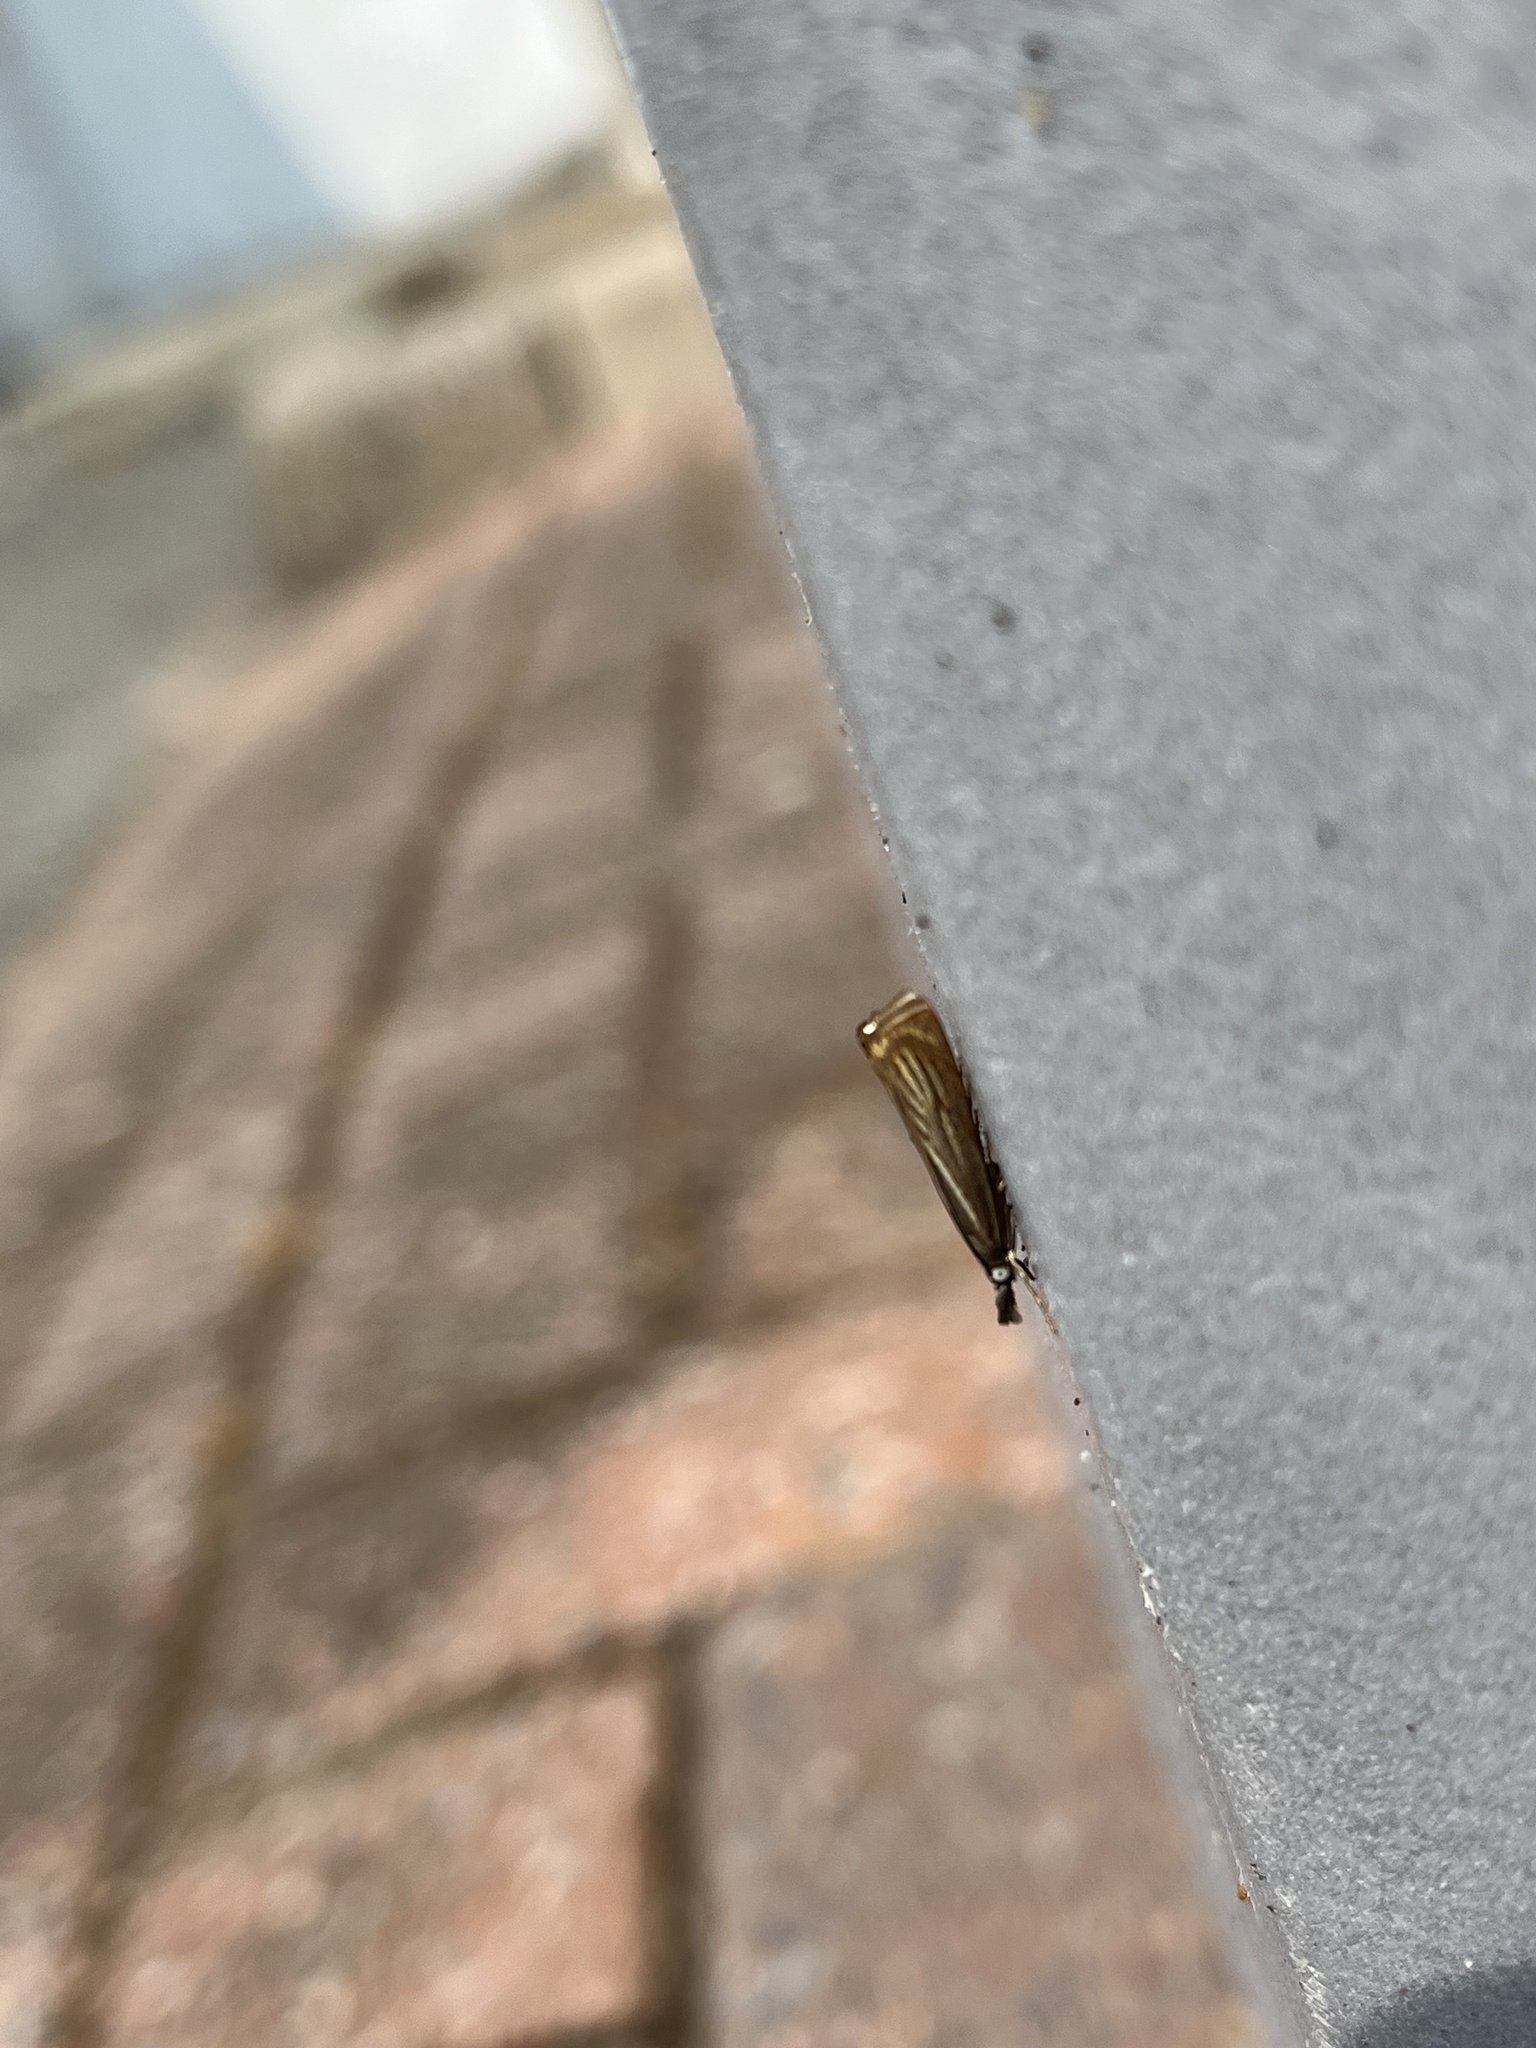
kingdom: Animalia
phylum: Arthropoda
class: Insecta
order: Lepidoptera
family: Crambidae
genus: Chrysoteuchia
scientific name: Chrysoteuchia culmella
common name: Garden grass-veneer
